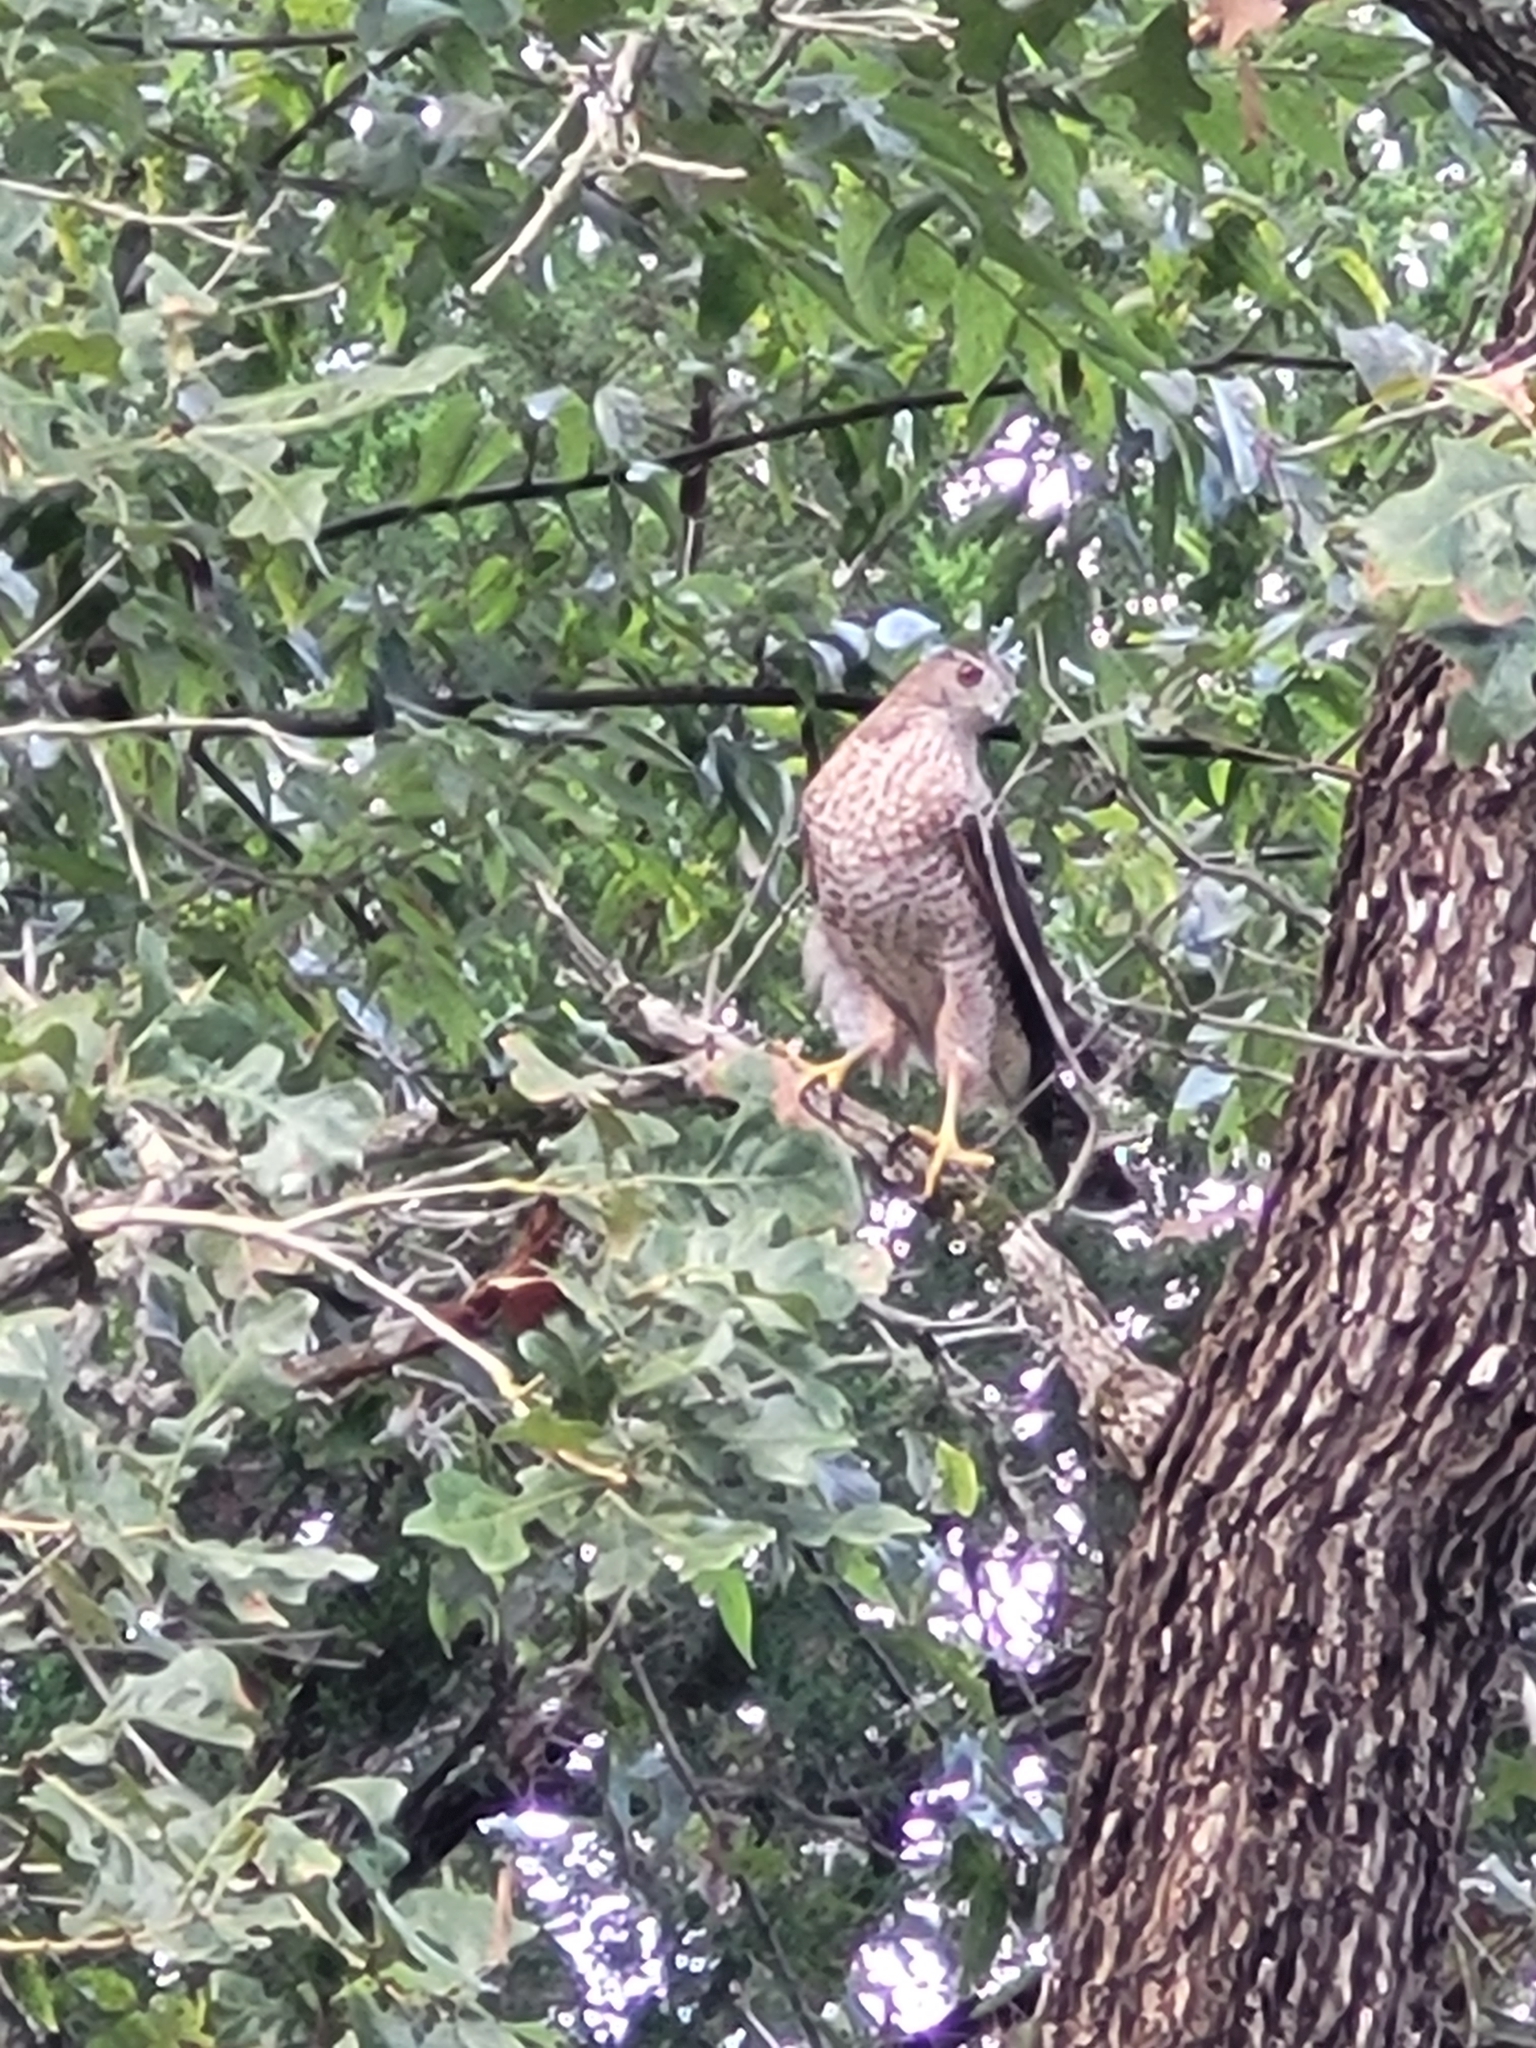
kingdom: Animalia
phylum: Chordata
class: Aves
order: Accipitriformes
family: Accipitridae
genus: Accipiter
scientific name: Accipiter cooperii
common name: Cooper's hawk
